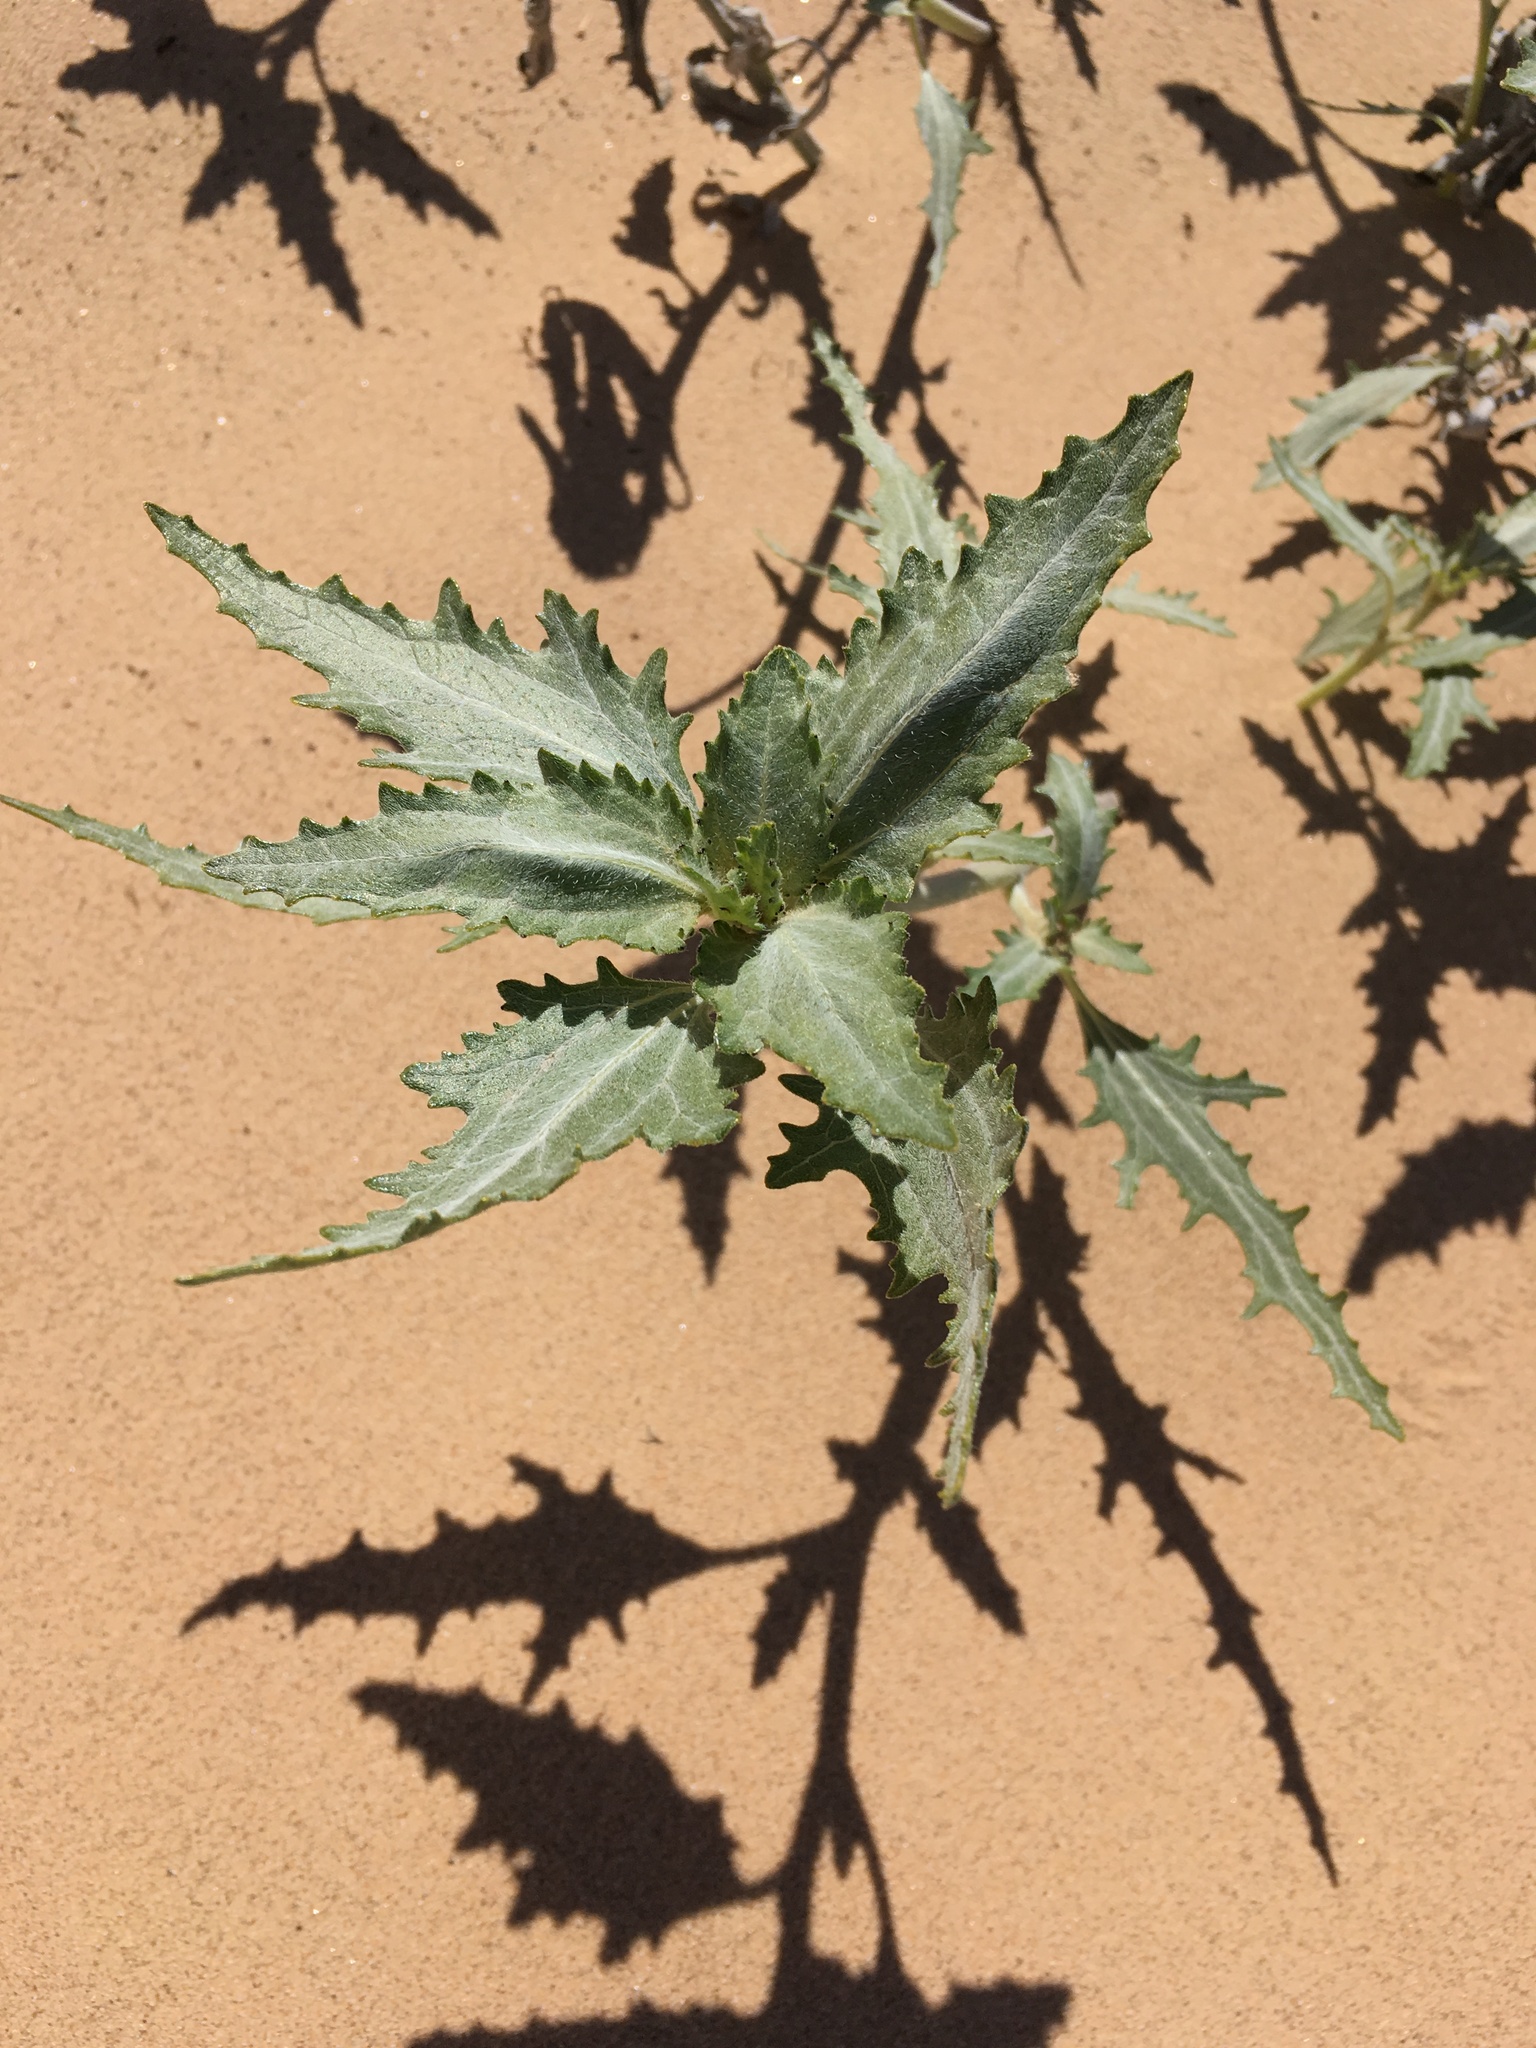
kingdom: Plantae
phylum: Tracheophyta
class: Magnoliopsida
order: Asterales
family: Asteraceae
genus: Dicoria
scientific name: Dicoria canescens
